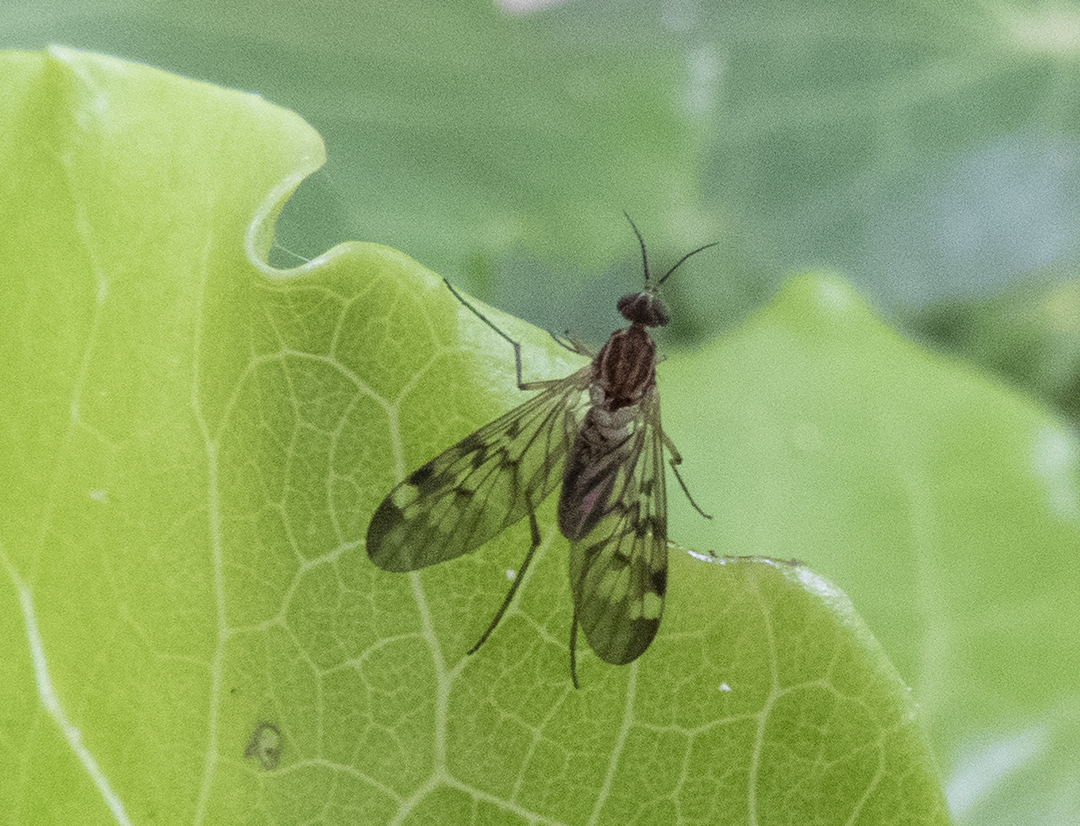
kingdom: Animalia
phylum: Arthropoda
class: Insecta
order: Diptera
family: Anisopodidae
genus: Sylvicola
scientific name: Sylvicola notatus
